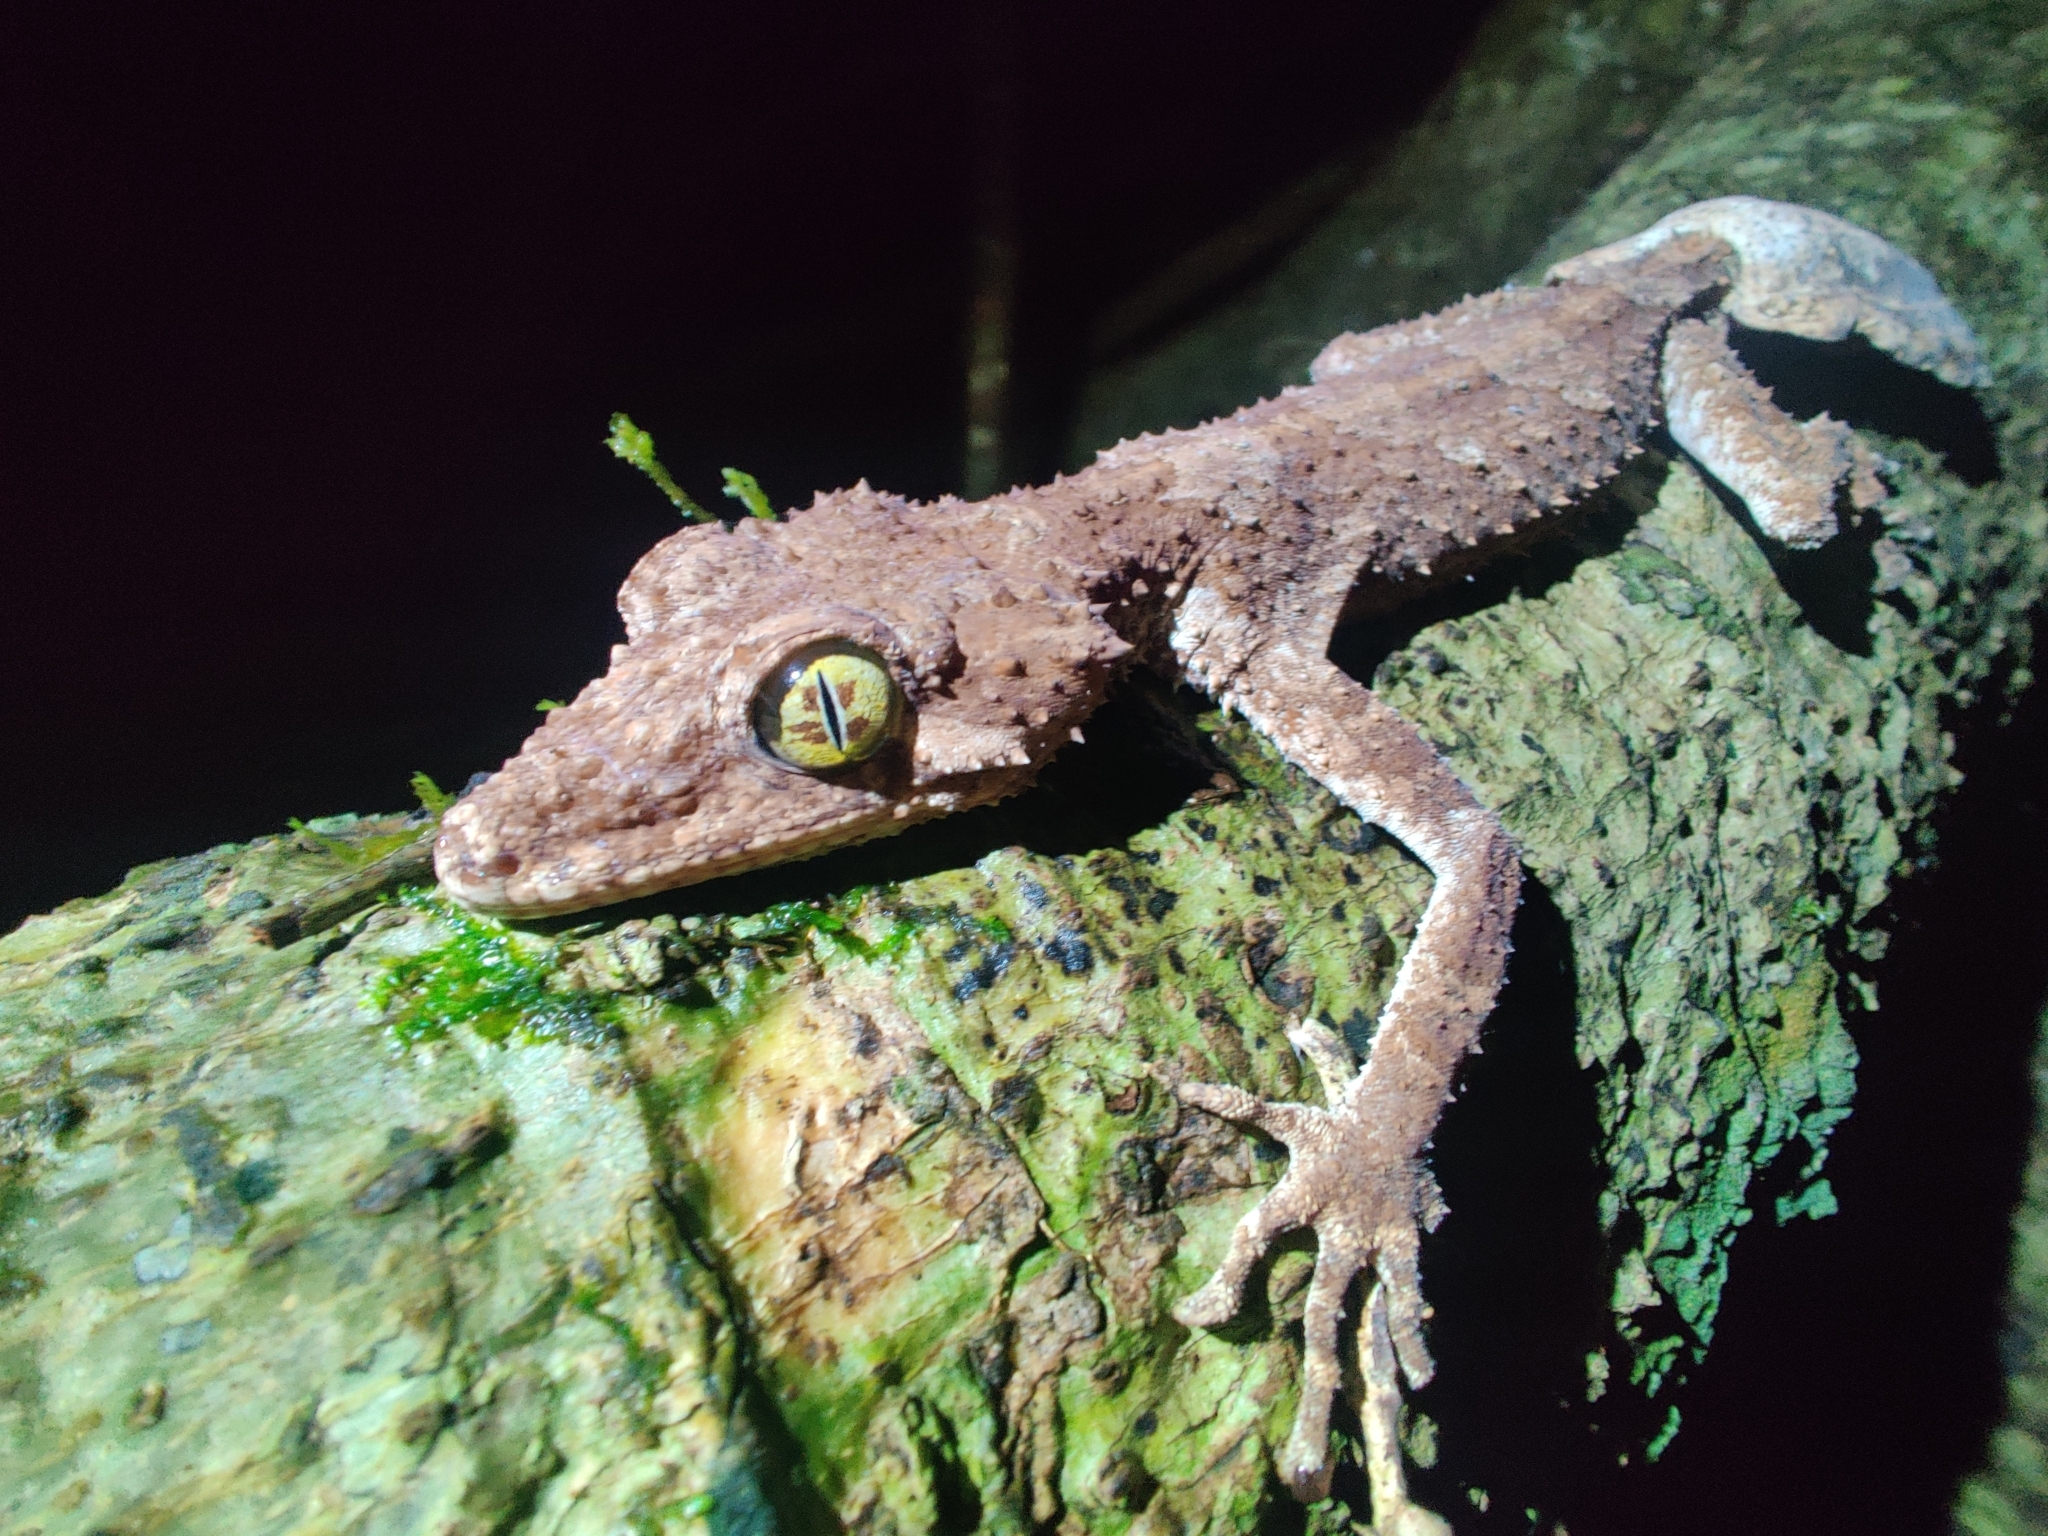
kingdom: Animalia
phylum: Chordata
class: Squamata
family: Carphodactylidae
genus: Saltuarius
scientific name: Saltuarius cornutus
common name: Leaf-tailed gecko
